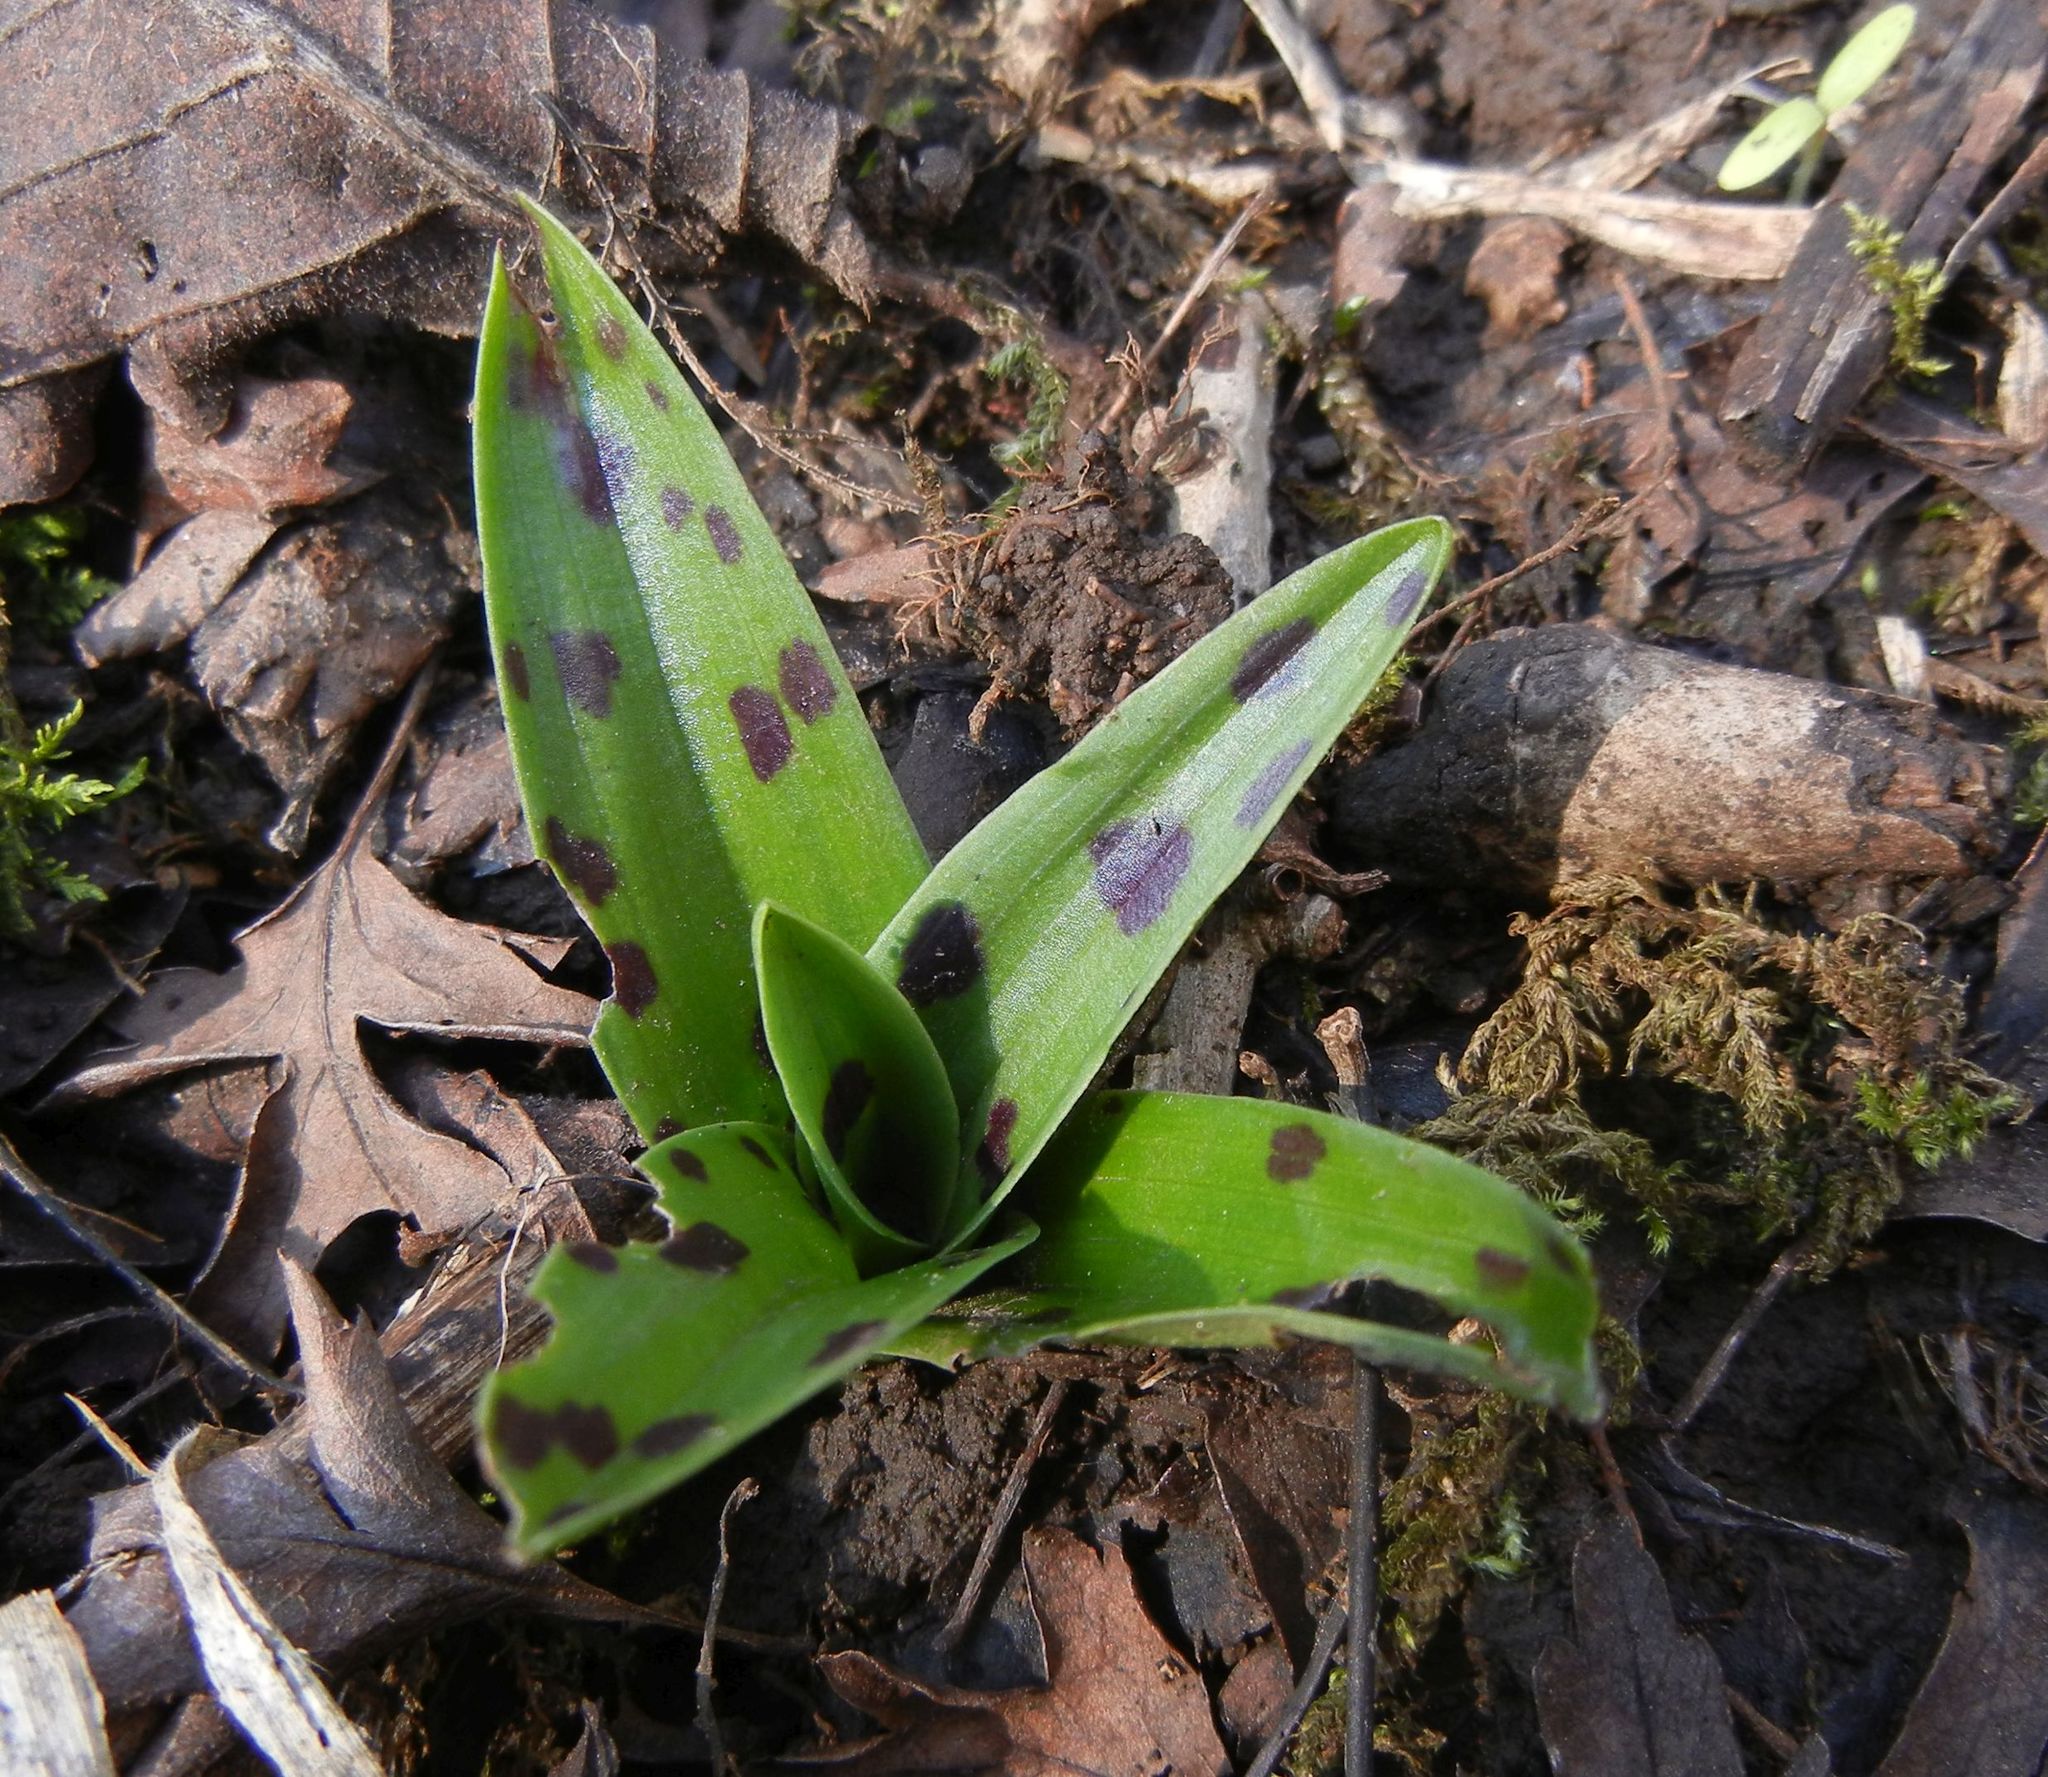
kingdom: Plantae
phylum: Tracheophyta
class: Liliopsida
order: Asparagales
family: Orchidaceae
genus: Orchis
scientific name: Orchis mascula
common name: Early-purple orchid
